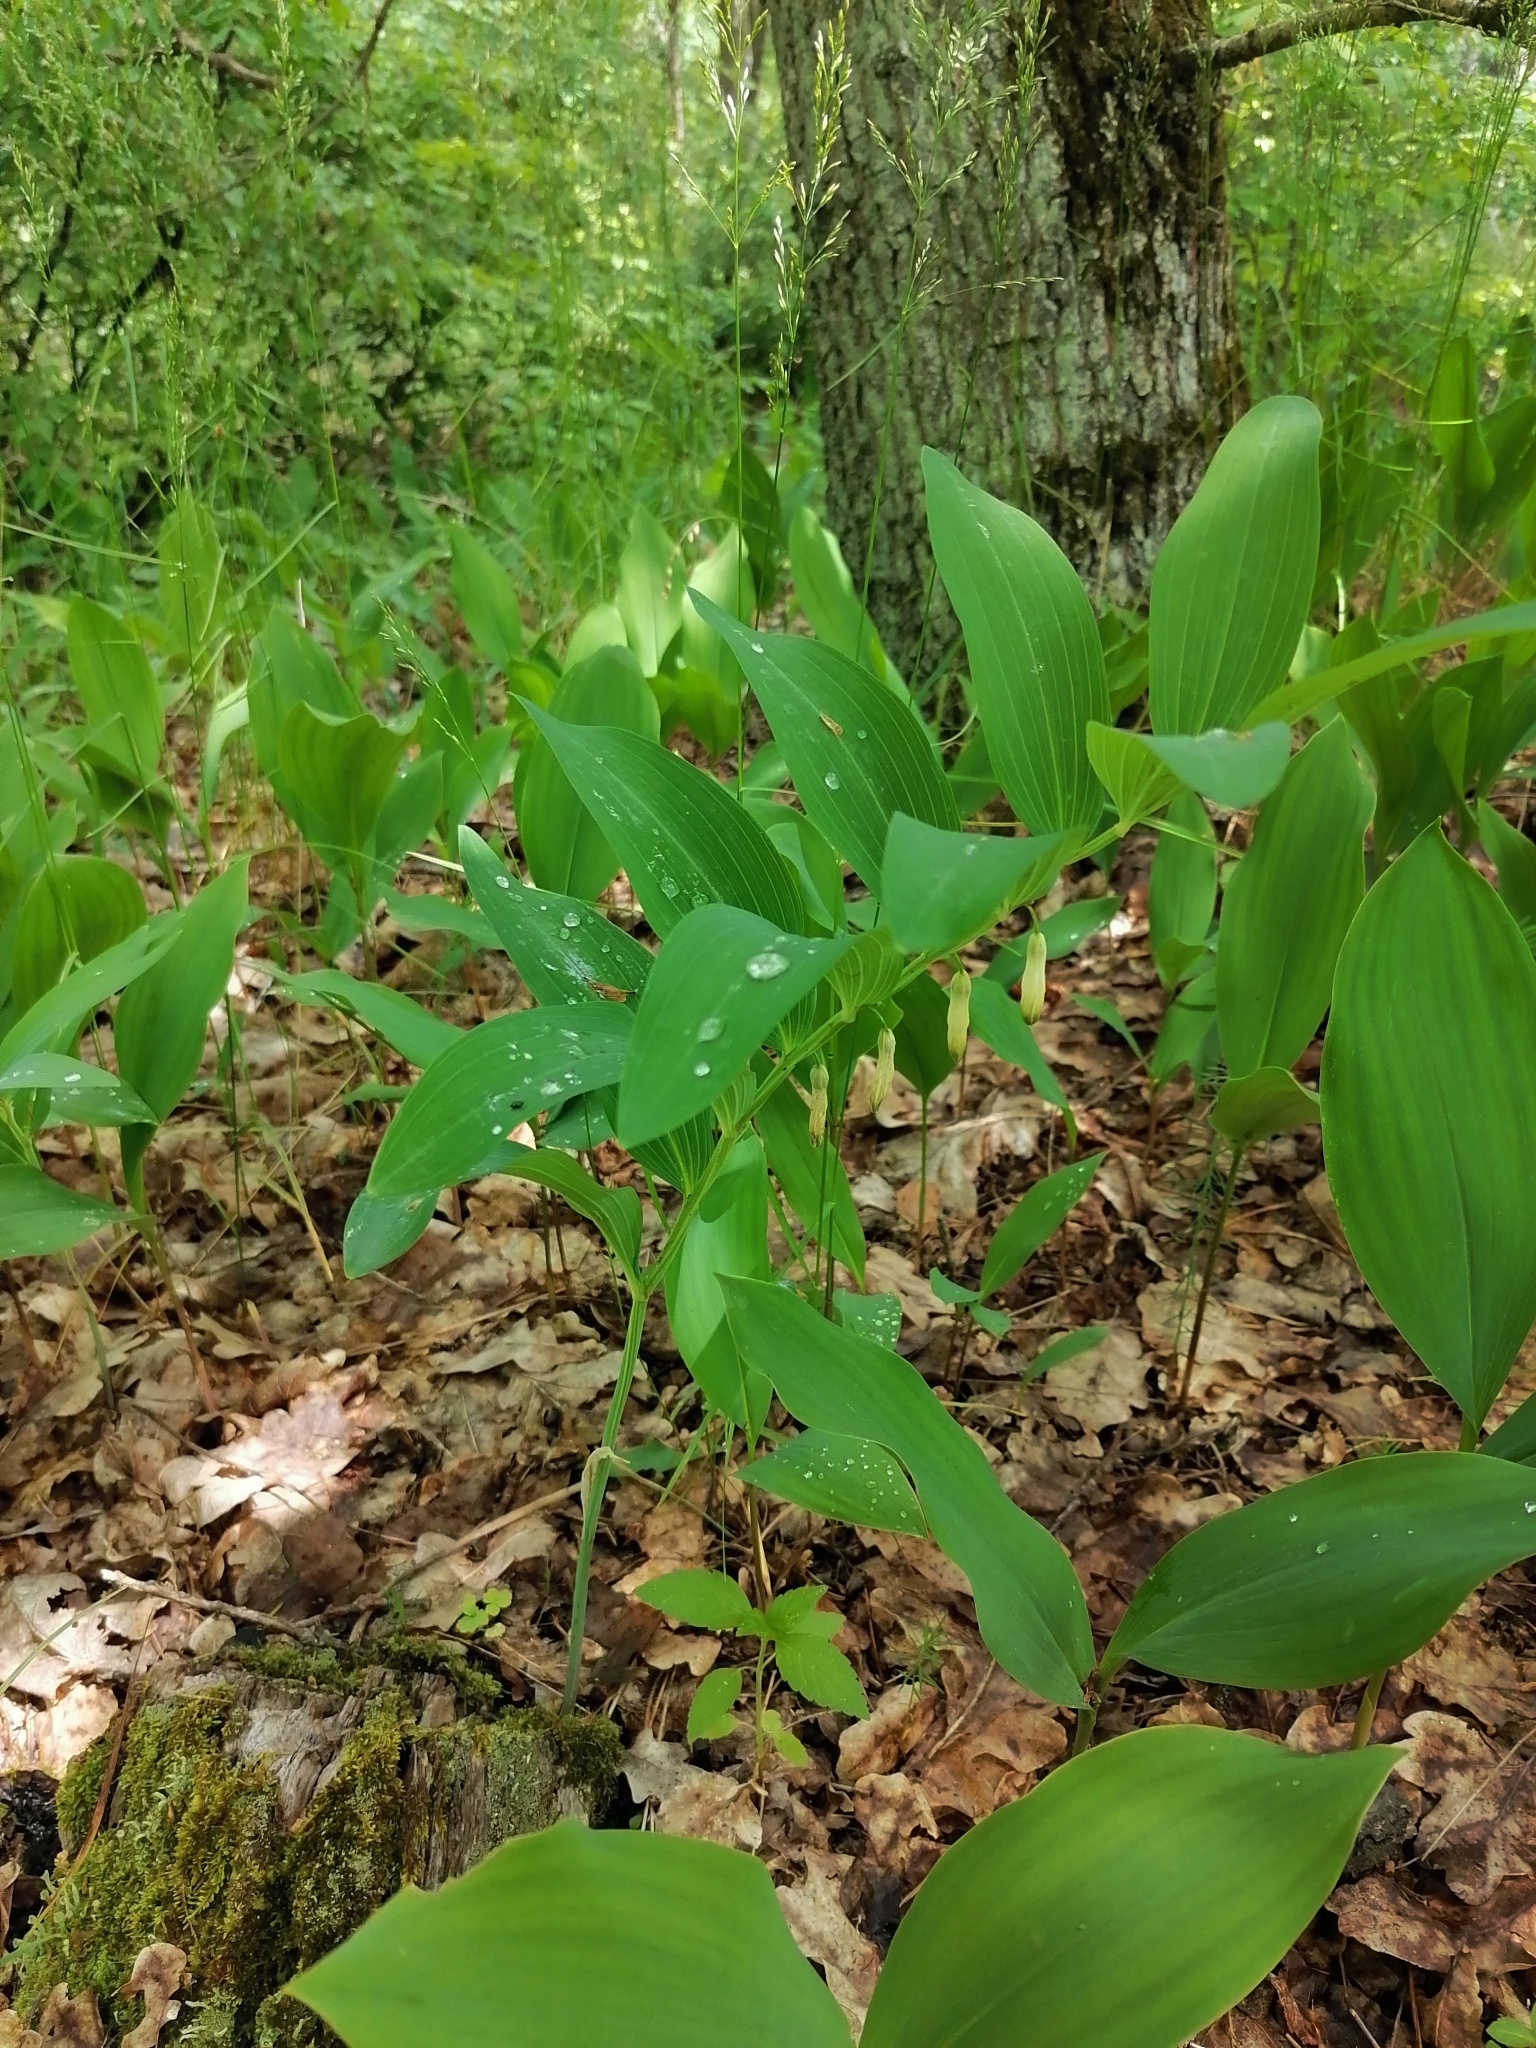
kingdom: Plantae
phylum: Tracheophyta
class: Liliopsida
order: Asparagales
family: Asparagaceae
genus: Polygonatum
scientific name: Polygonatum odoratum
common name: Angular solomon's-seal
